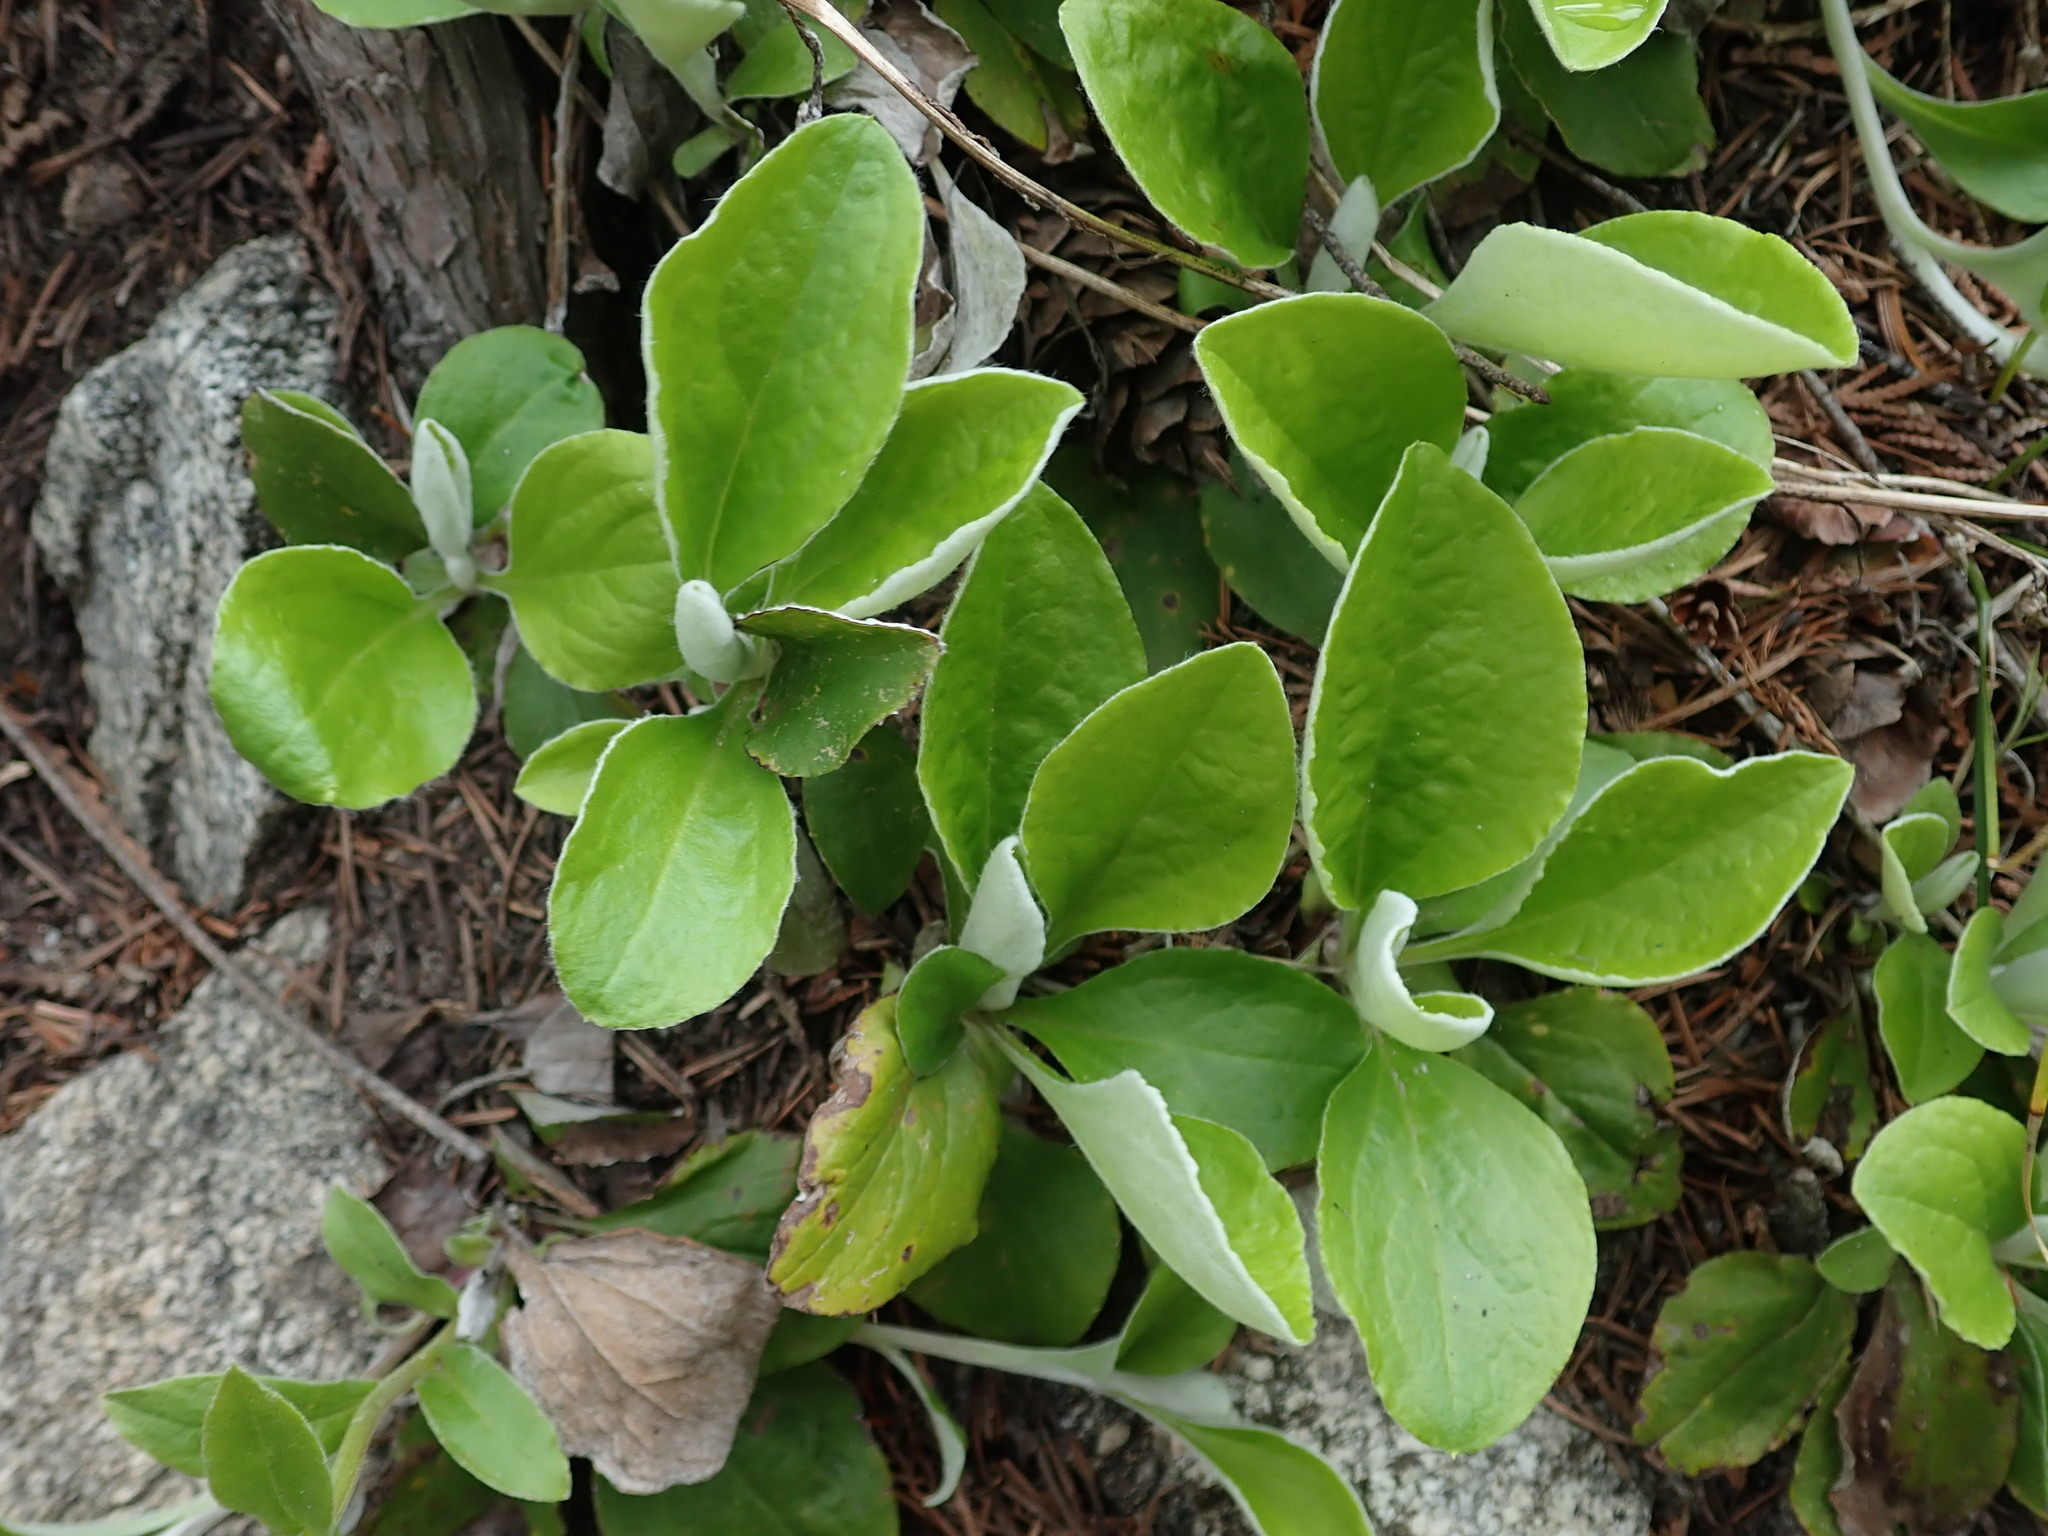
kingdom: Plantae
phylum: Tracheophyta
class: Magnoliopsida
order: Asterales
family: Asteraceae
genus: Antennaria
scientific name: Antennaria racemosa
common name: Racemose pussytoes
